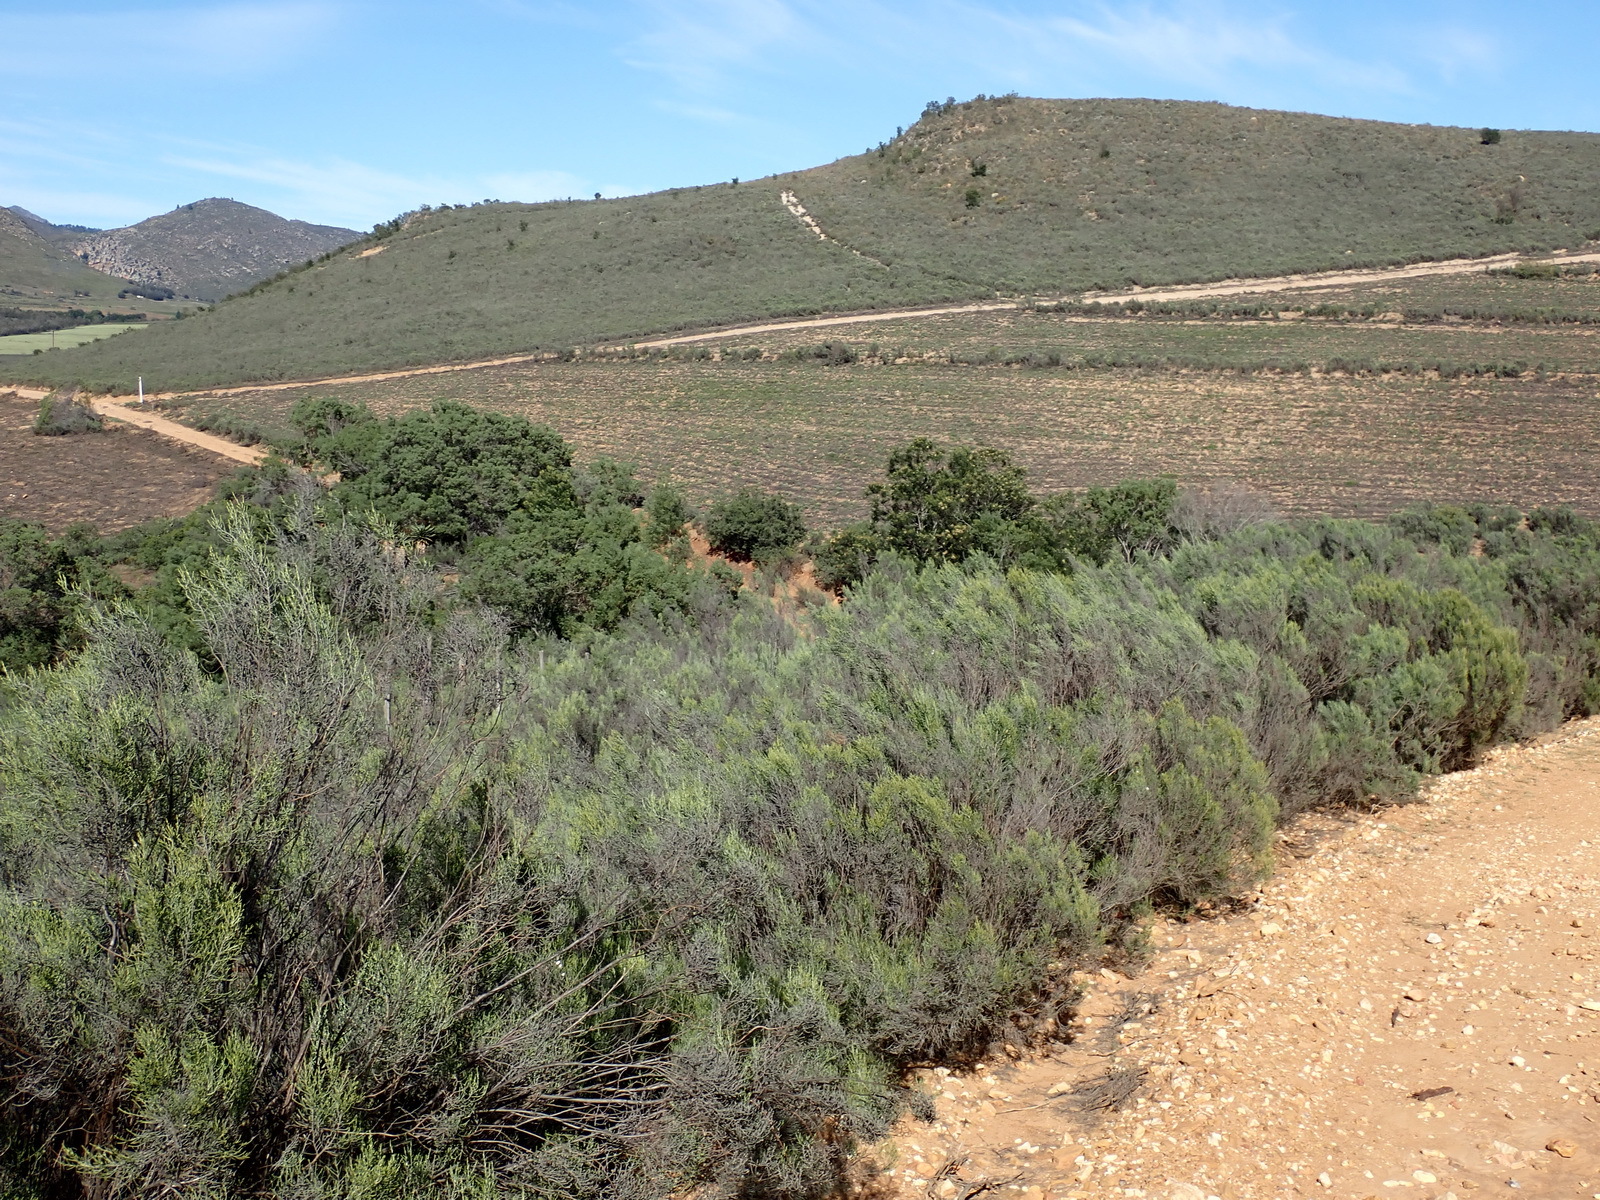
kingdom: Plantae
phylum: Tracheophyta
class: Magnoliopsida
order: Asterales
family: Asteraceae
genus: Dicerothamnus
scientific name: Dicerothamnus rhinocerotis
